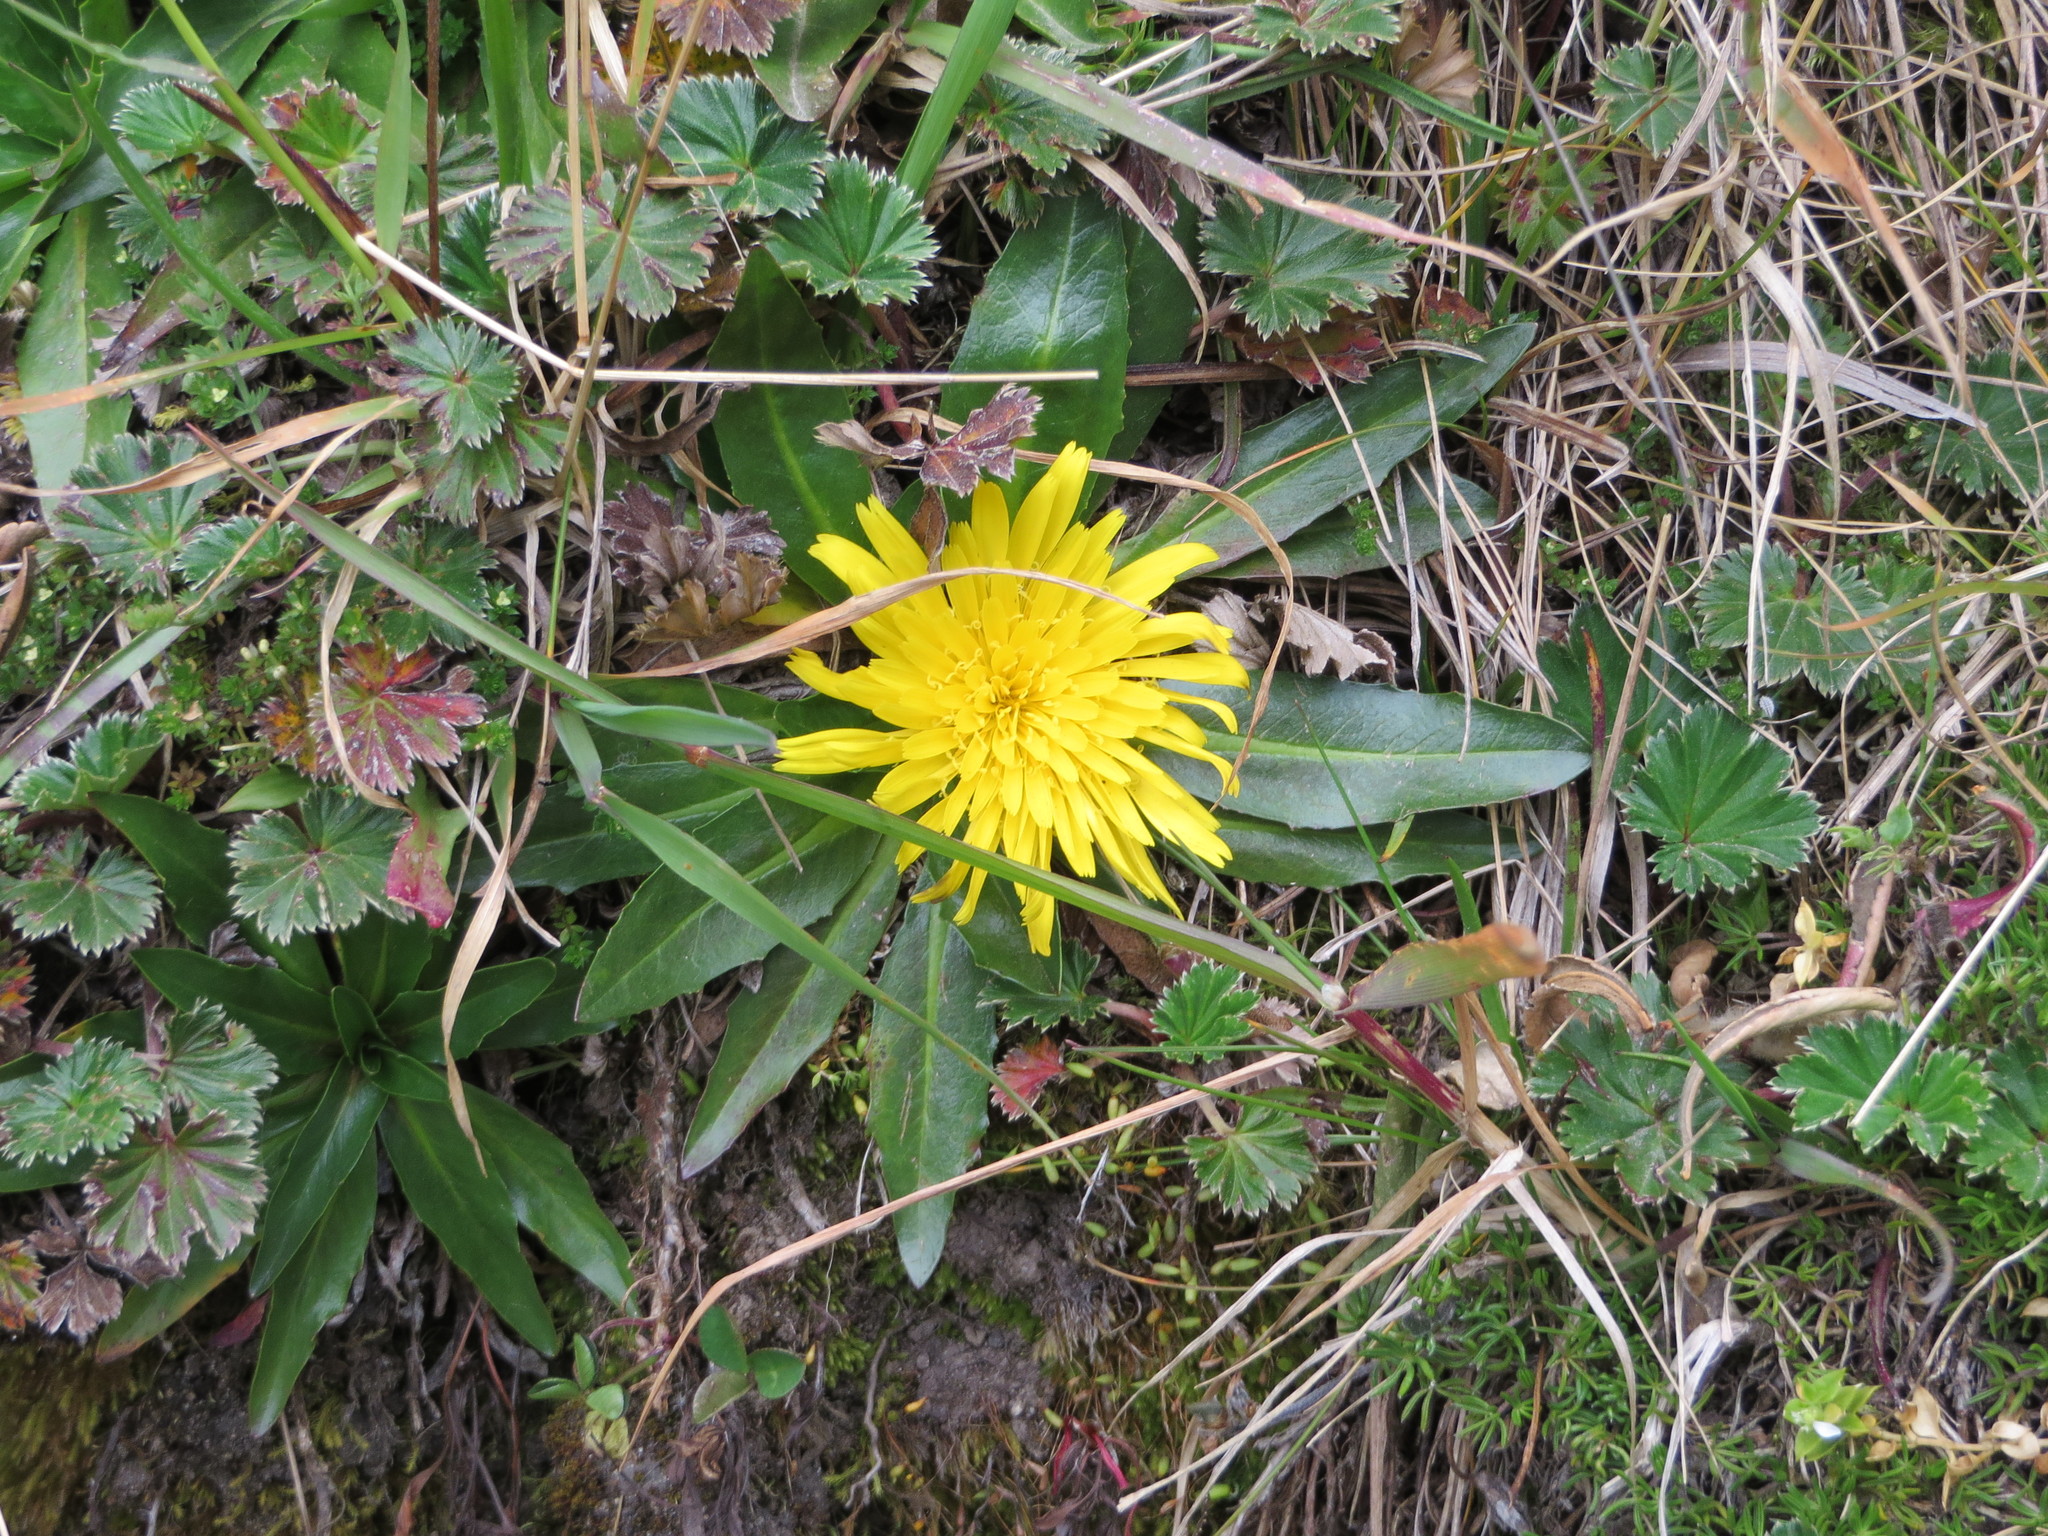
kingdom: Plantae
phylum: Tracheophyta
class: Magnoliopsida
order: Asterales
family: Asteraceae
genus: Hypochaeris
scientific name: Hypochaeris sessiliflora
